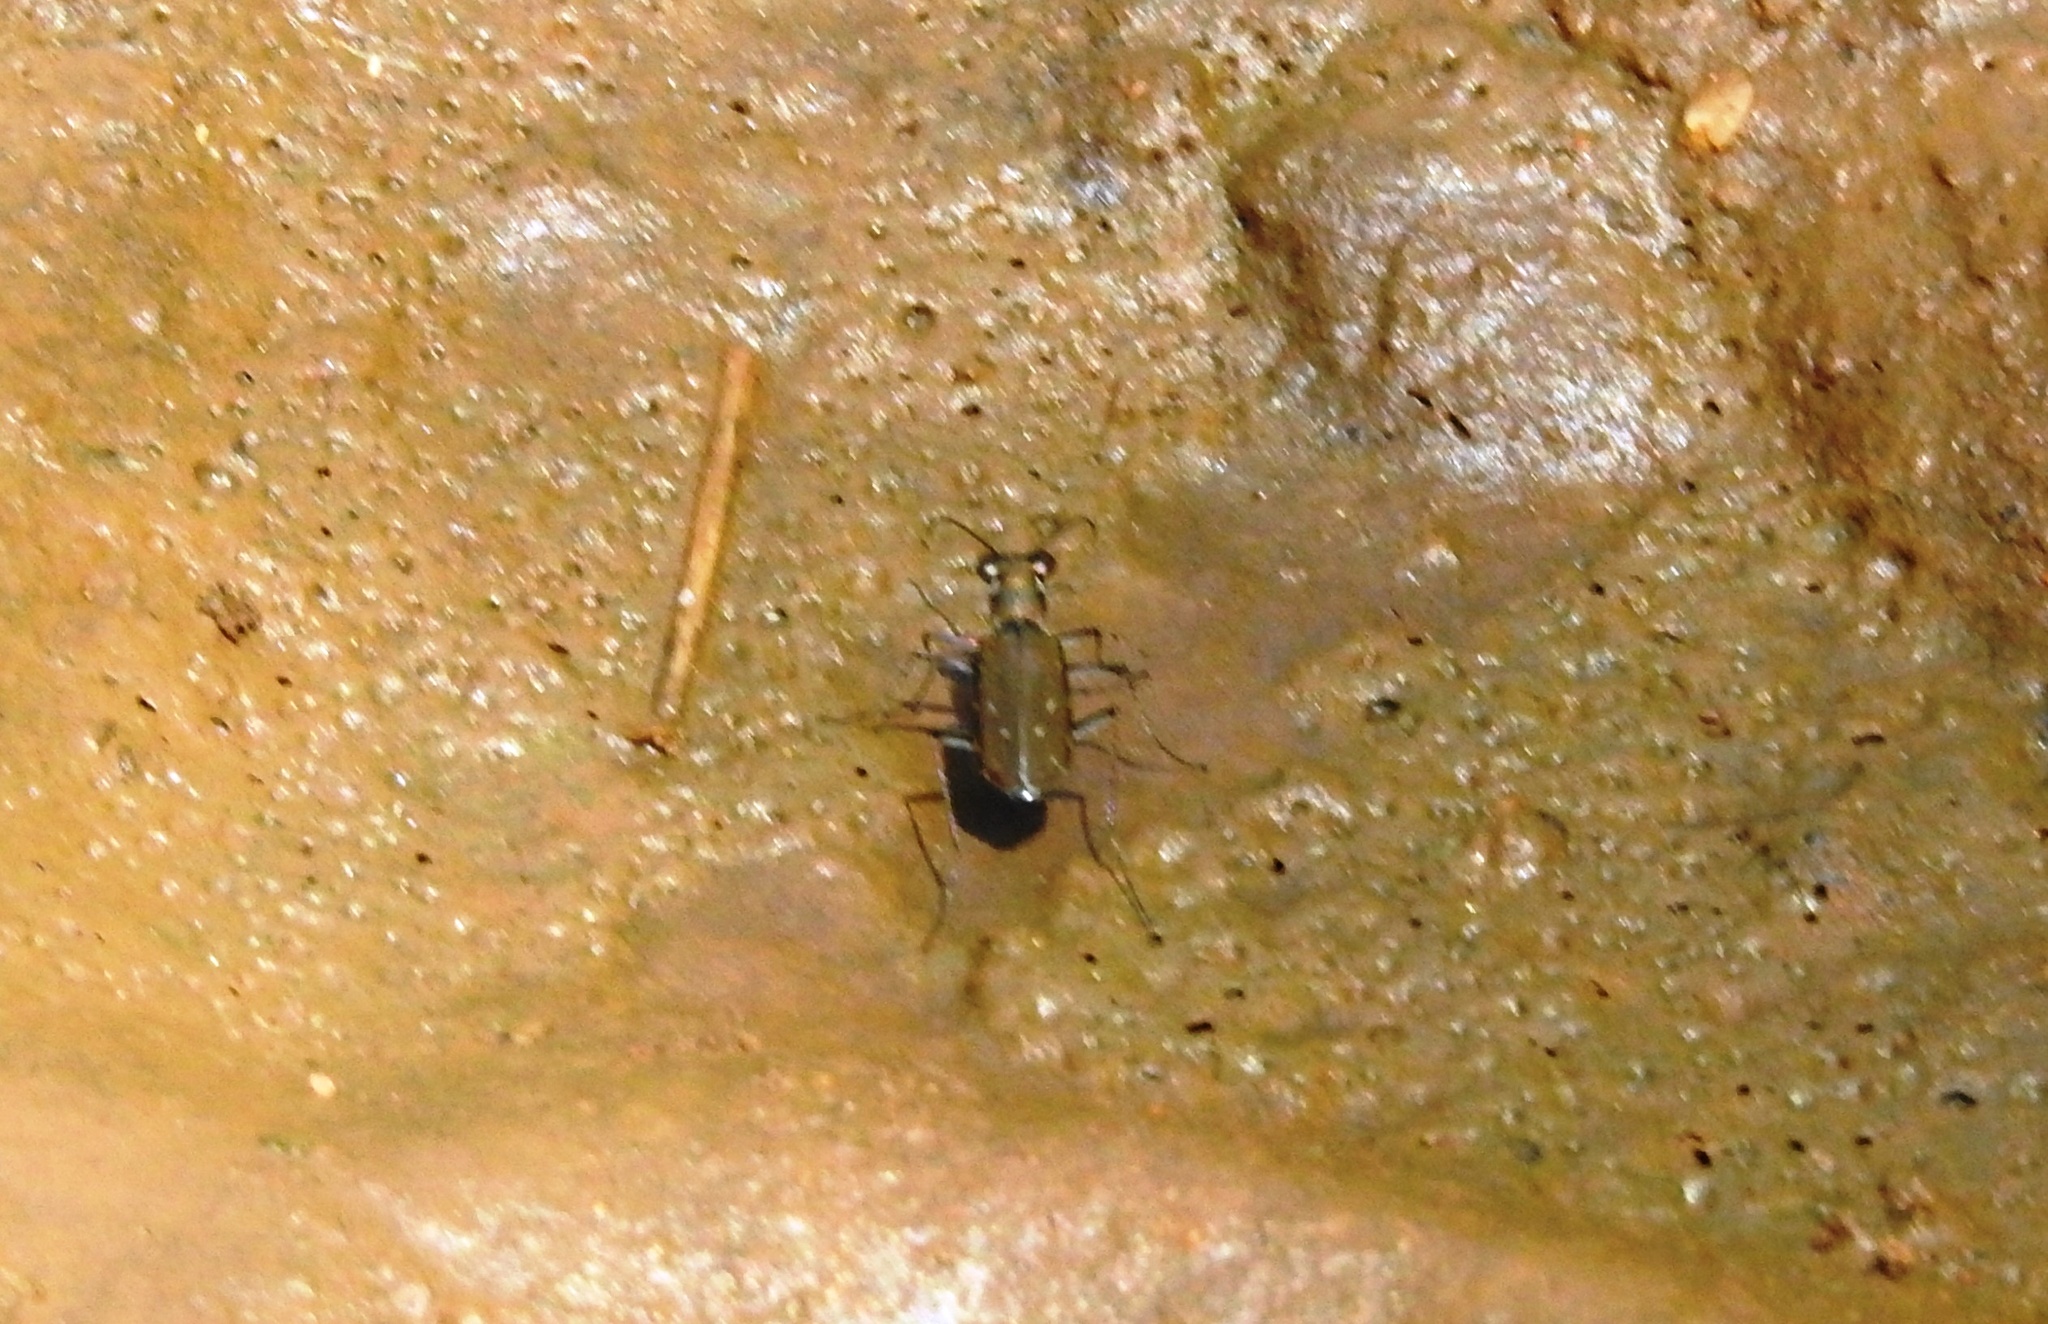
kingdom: Animalia
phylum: Arthropoda
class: Insecta
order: Coleoptera
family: Carabidae
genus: Myriochila
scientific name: Myriochila undulata
